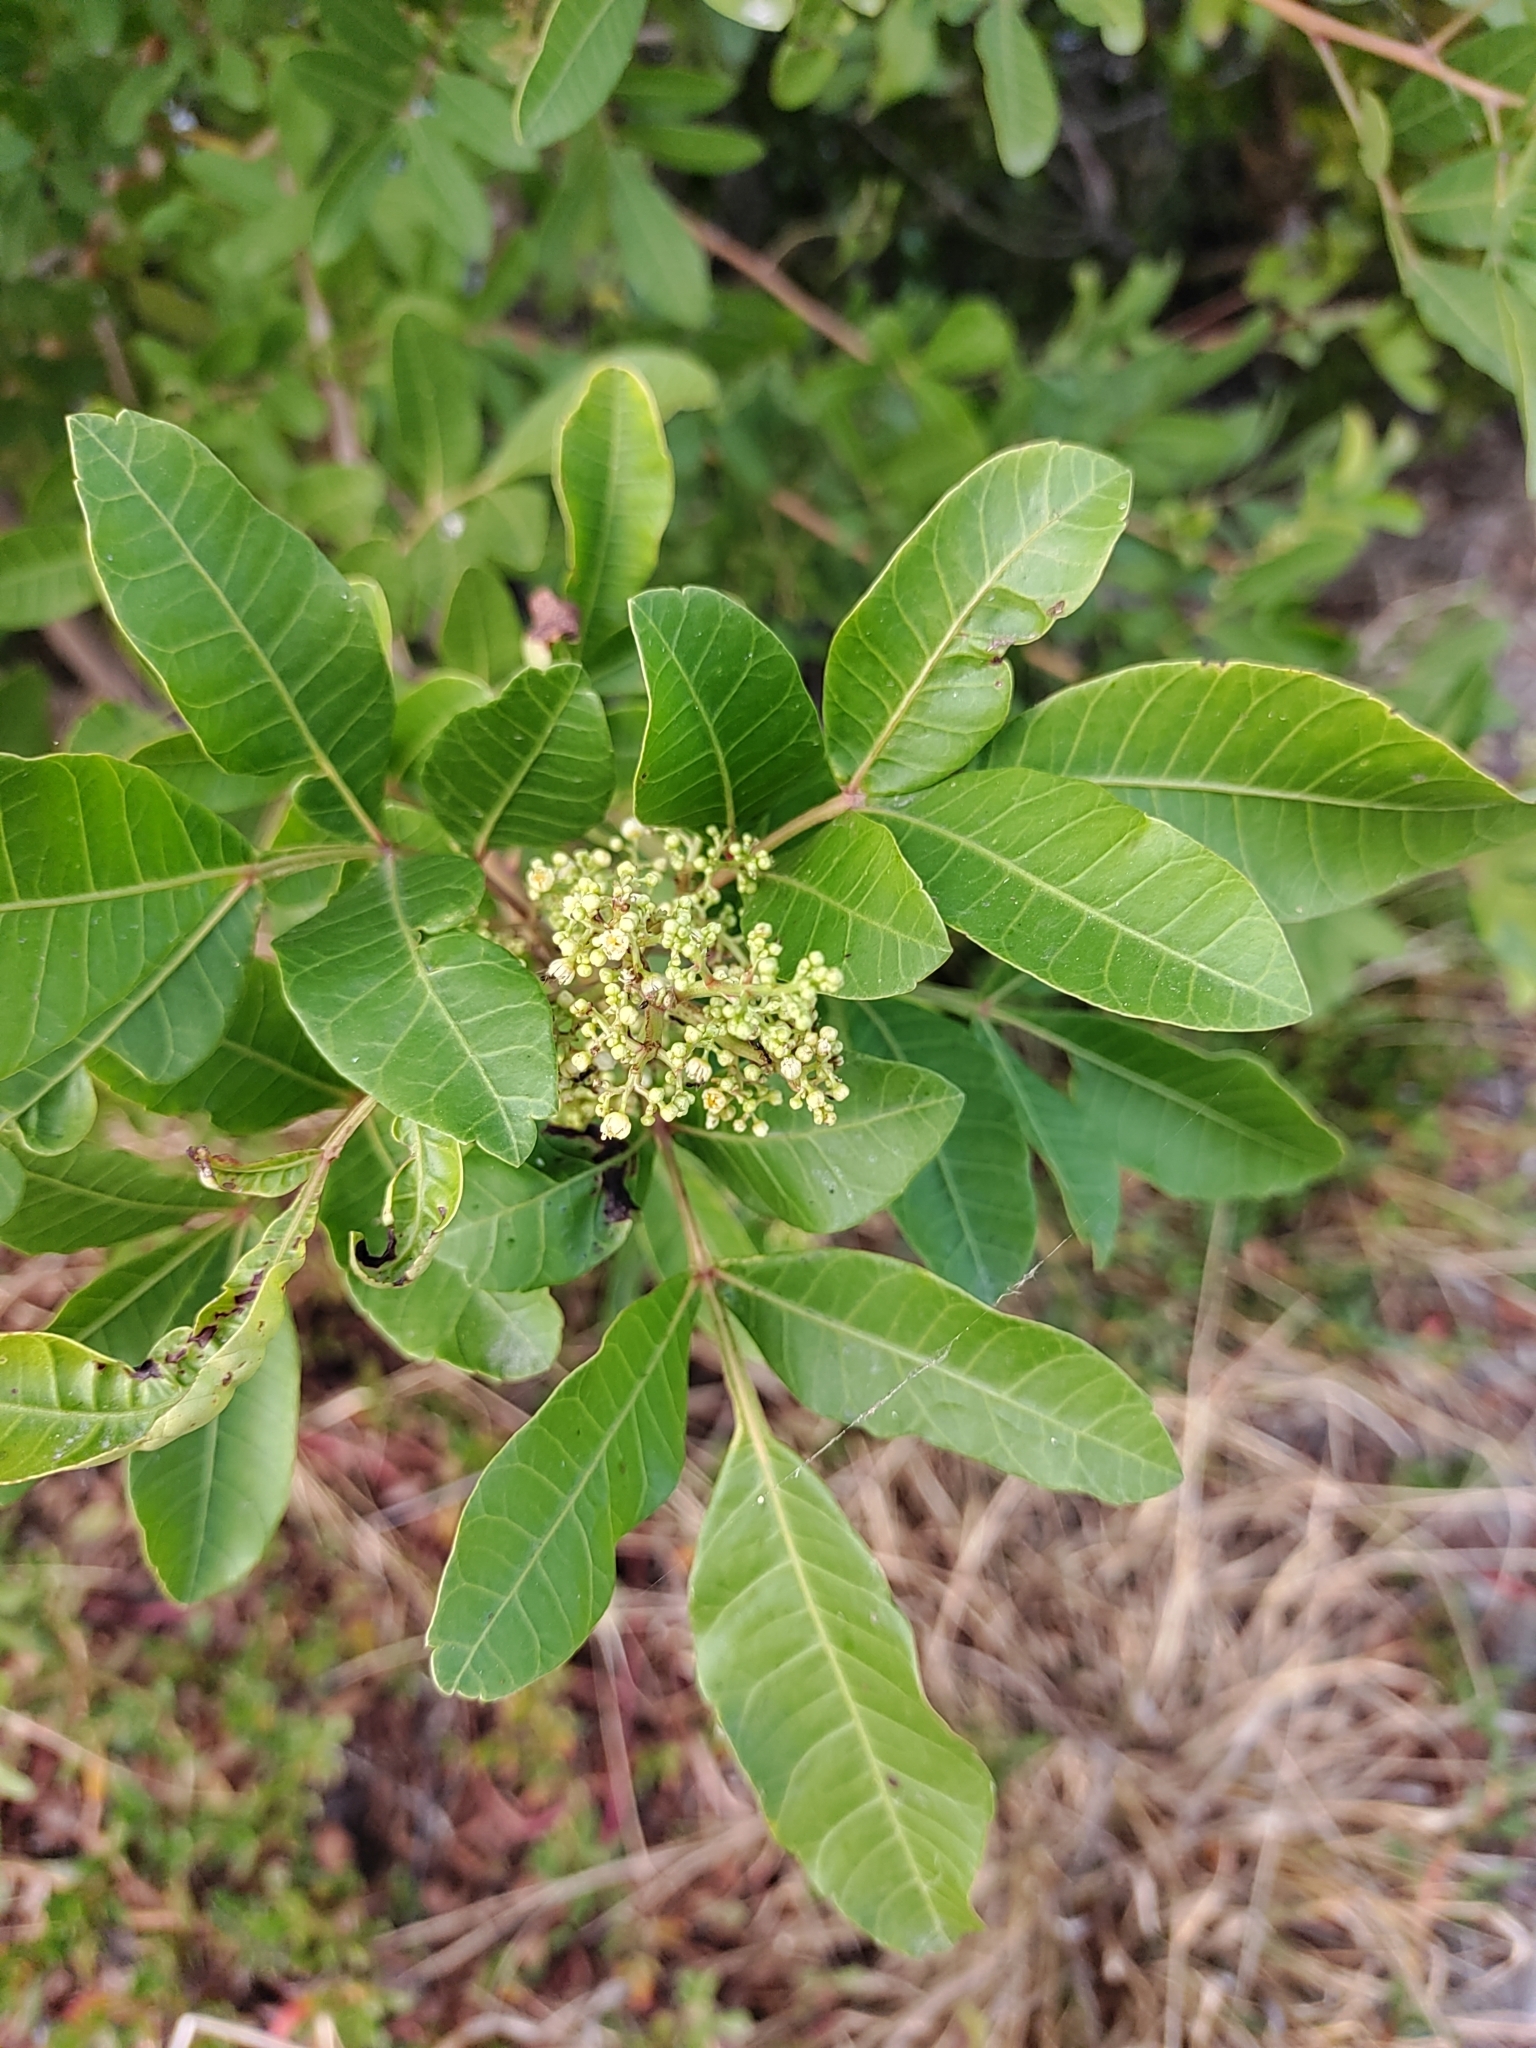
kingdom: Plantae
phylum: Tracheophyta
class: Magnoliopsida
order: Sapindales
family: Anacardiaceae
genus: Schinus
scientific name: Schinus terebinthifolia
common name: Brazilian peppertree
